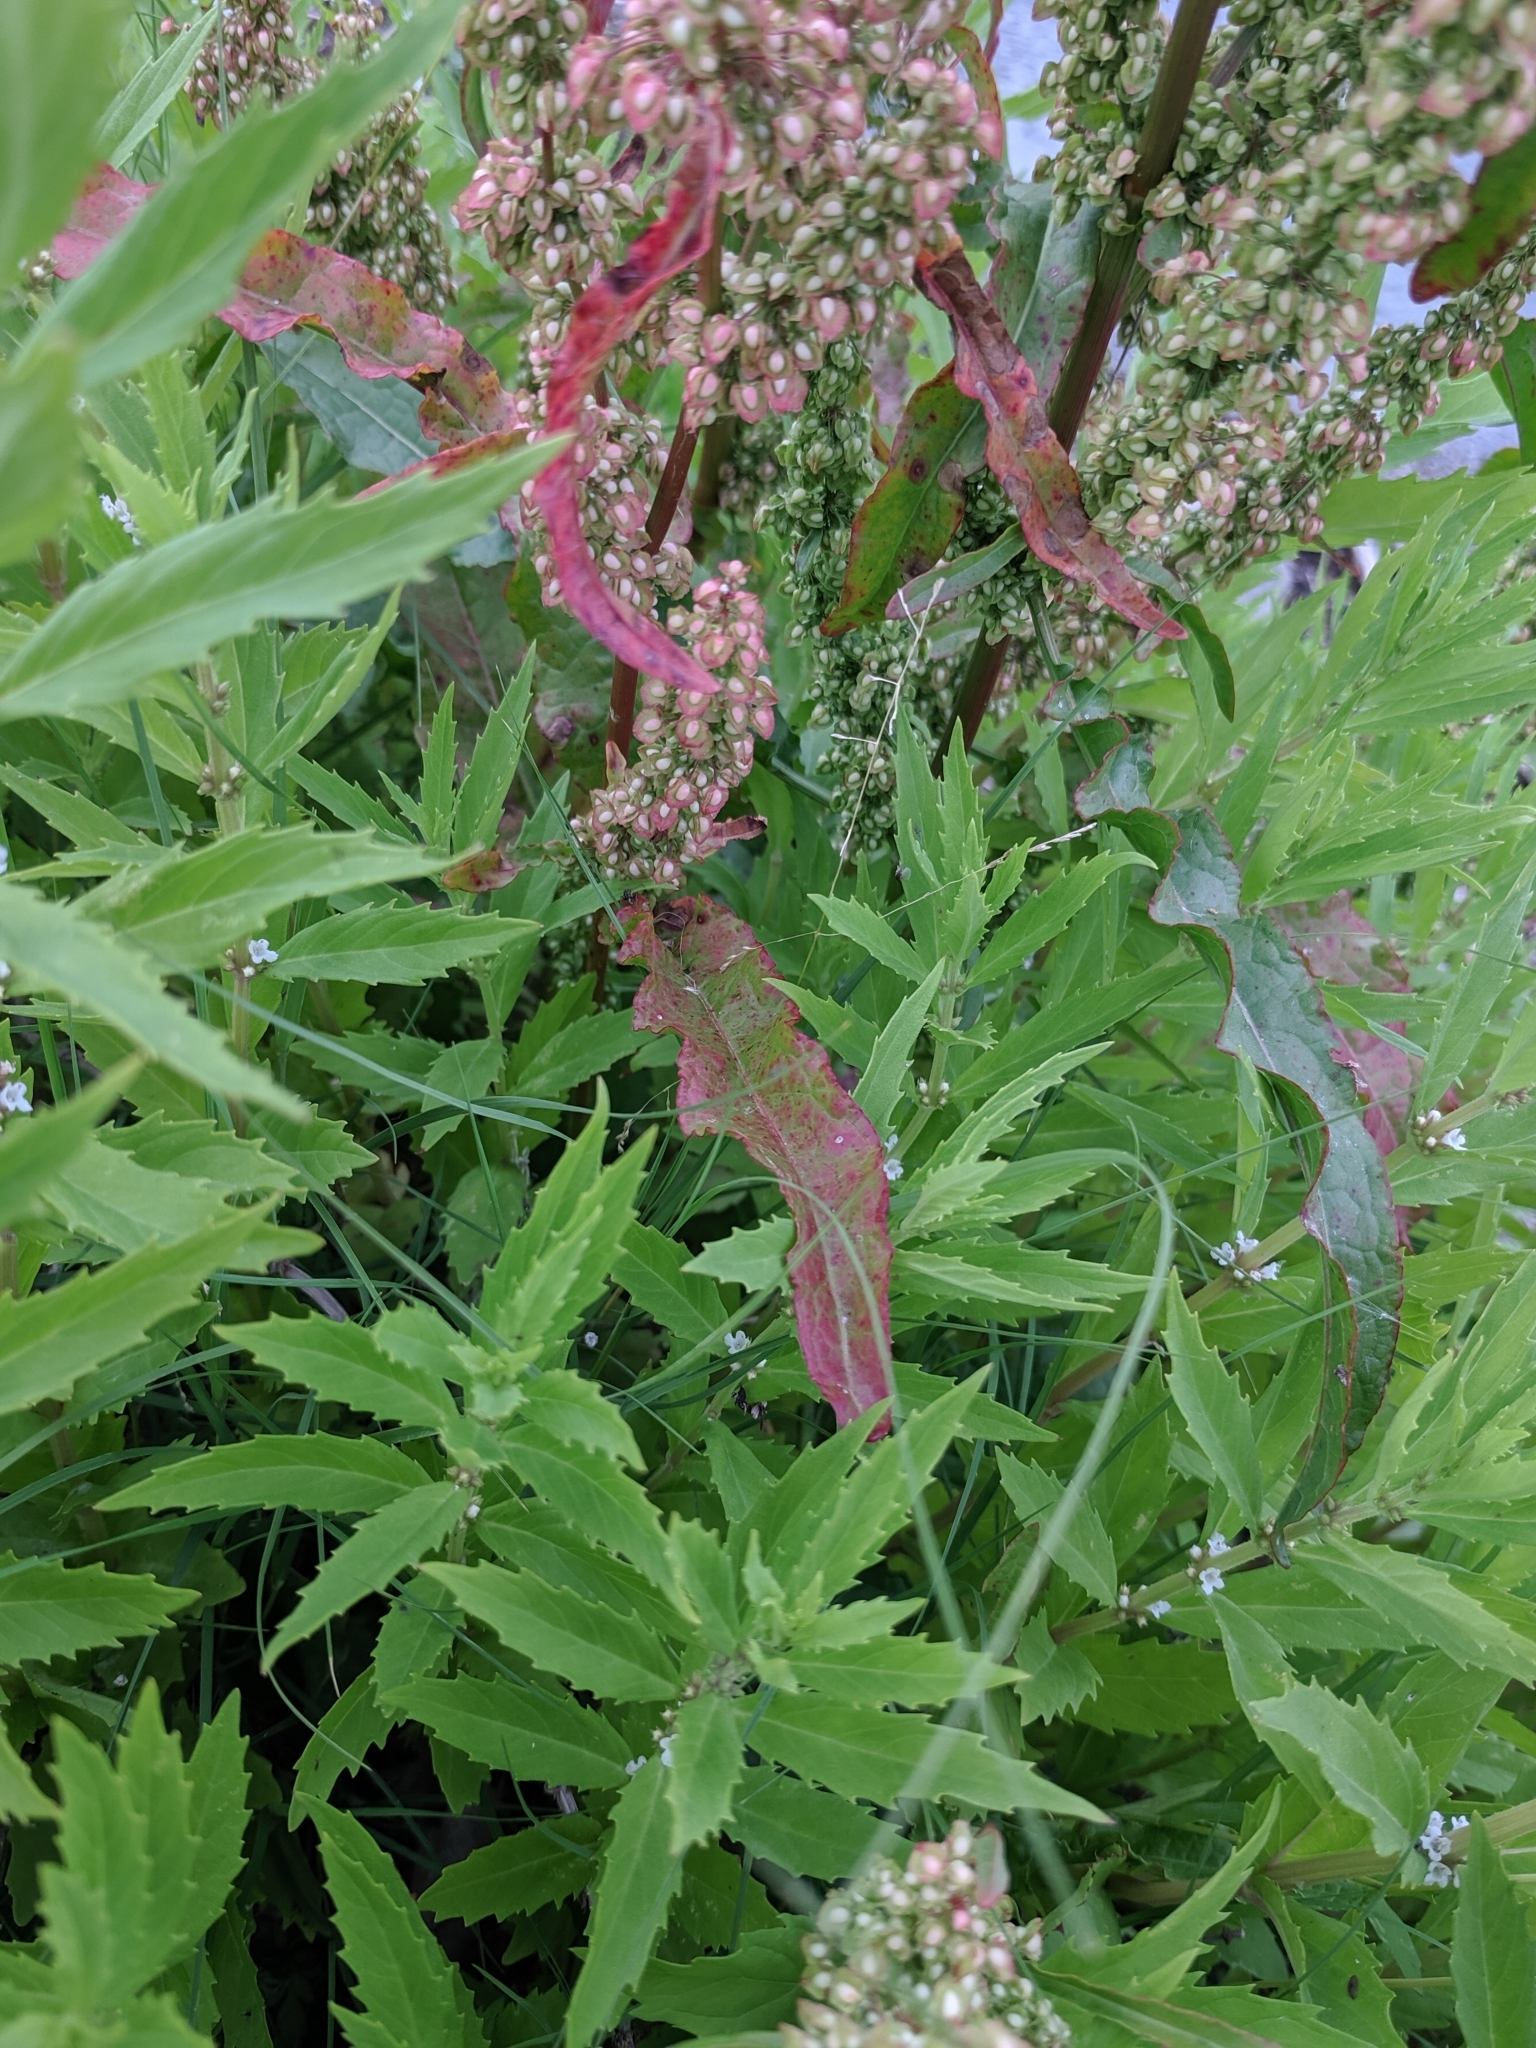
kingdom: Plantae
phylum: Tracheophyta
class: Magnoliopsida
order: Caryophyllales
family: Polygonaceae
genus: Rumex
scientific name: Rumex crispus
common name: Curled dock
